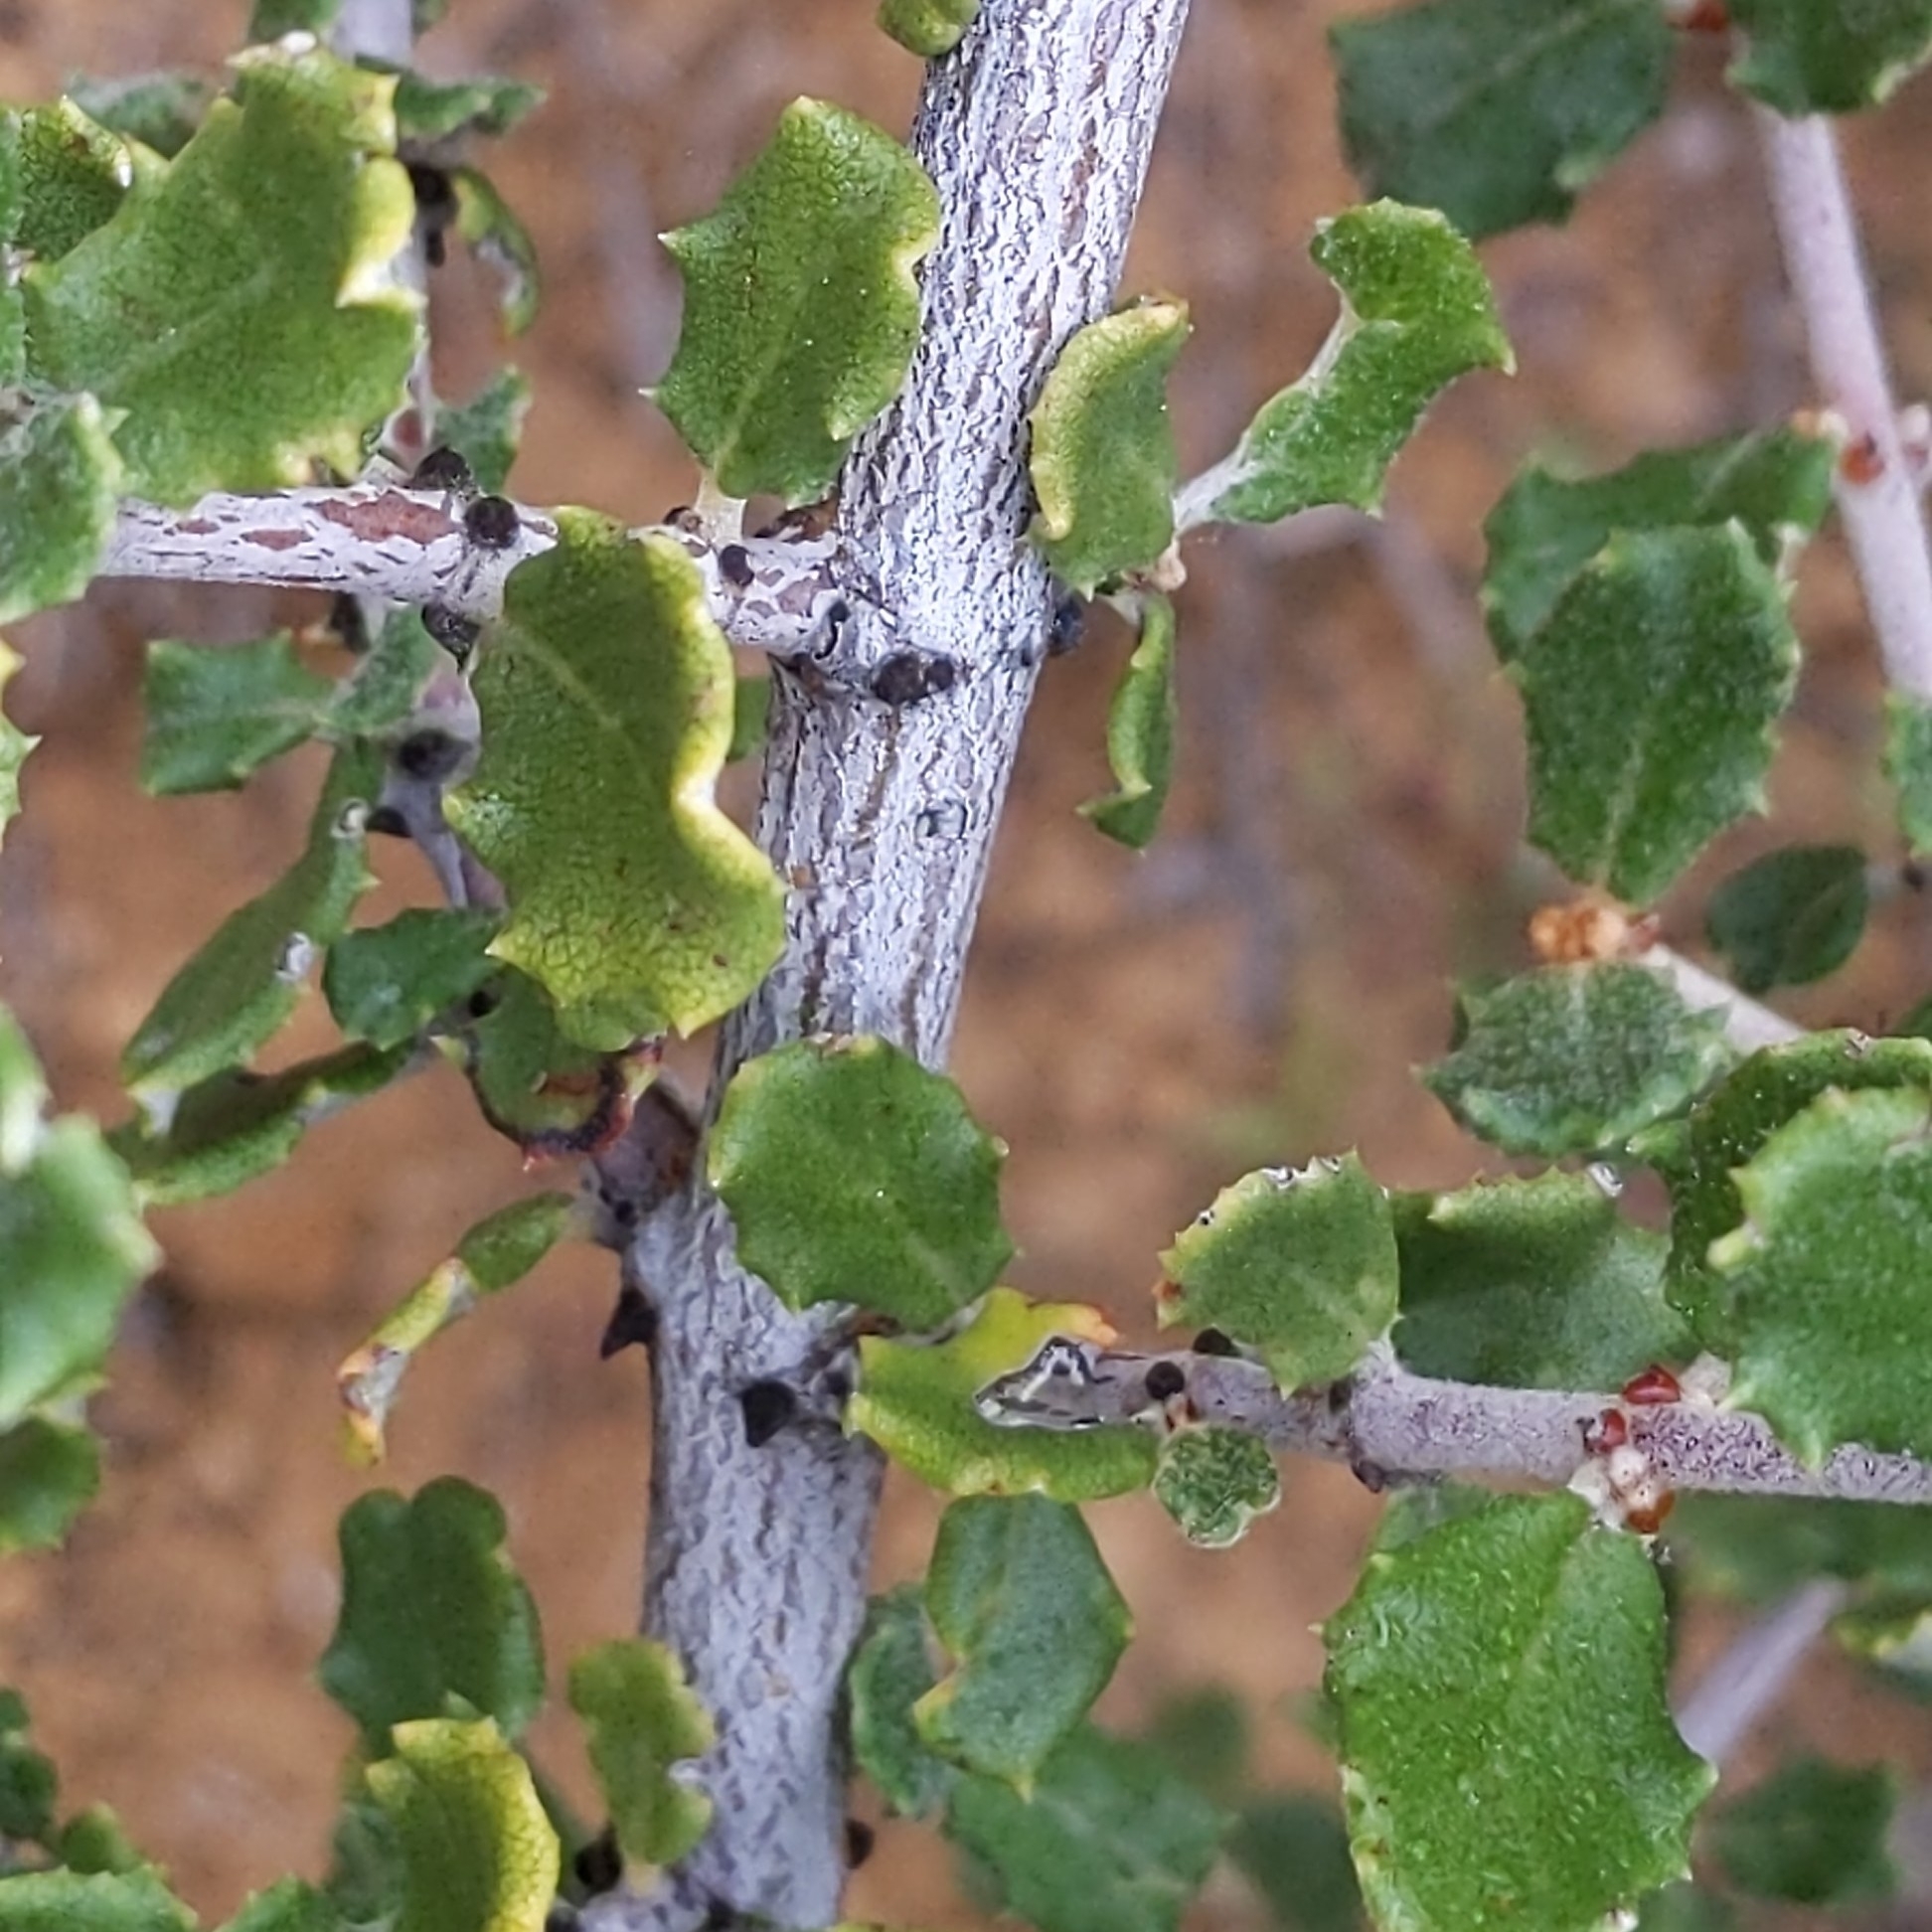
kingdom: Plantae
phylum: Tracheophyta
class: Magnoliopsida
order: Rosales
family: Rhamnaceae
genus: Ceanothus
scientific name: Ceanothus crassifolius
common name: Hoaryleaf ceanothus
